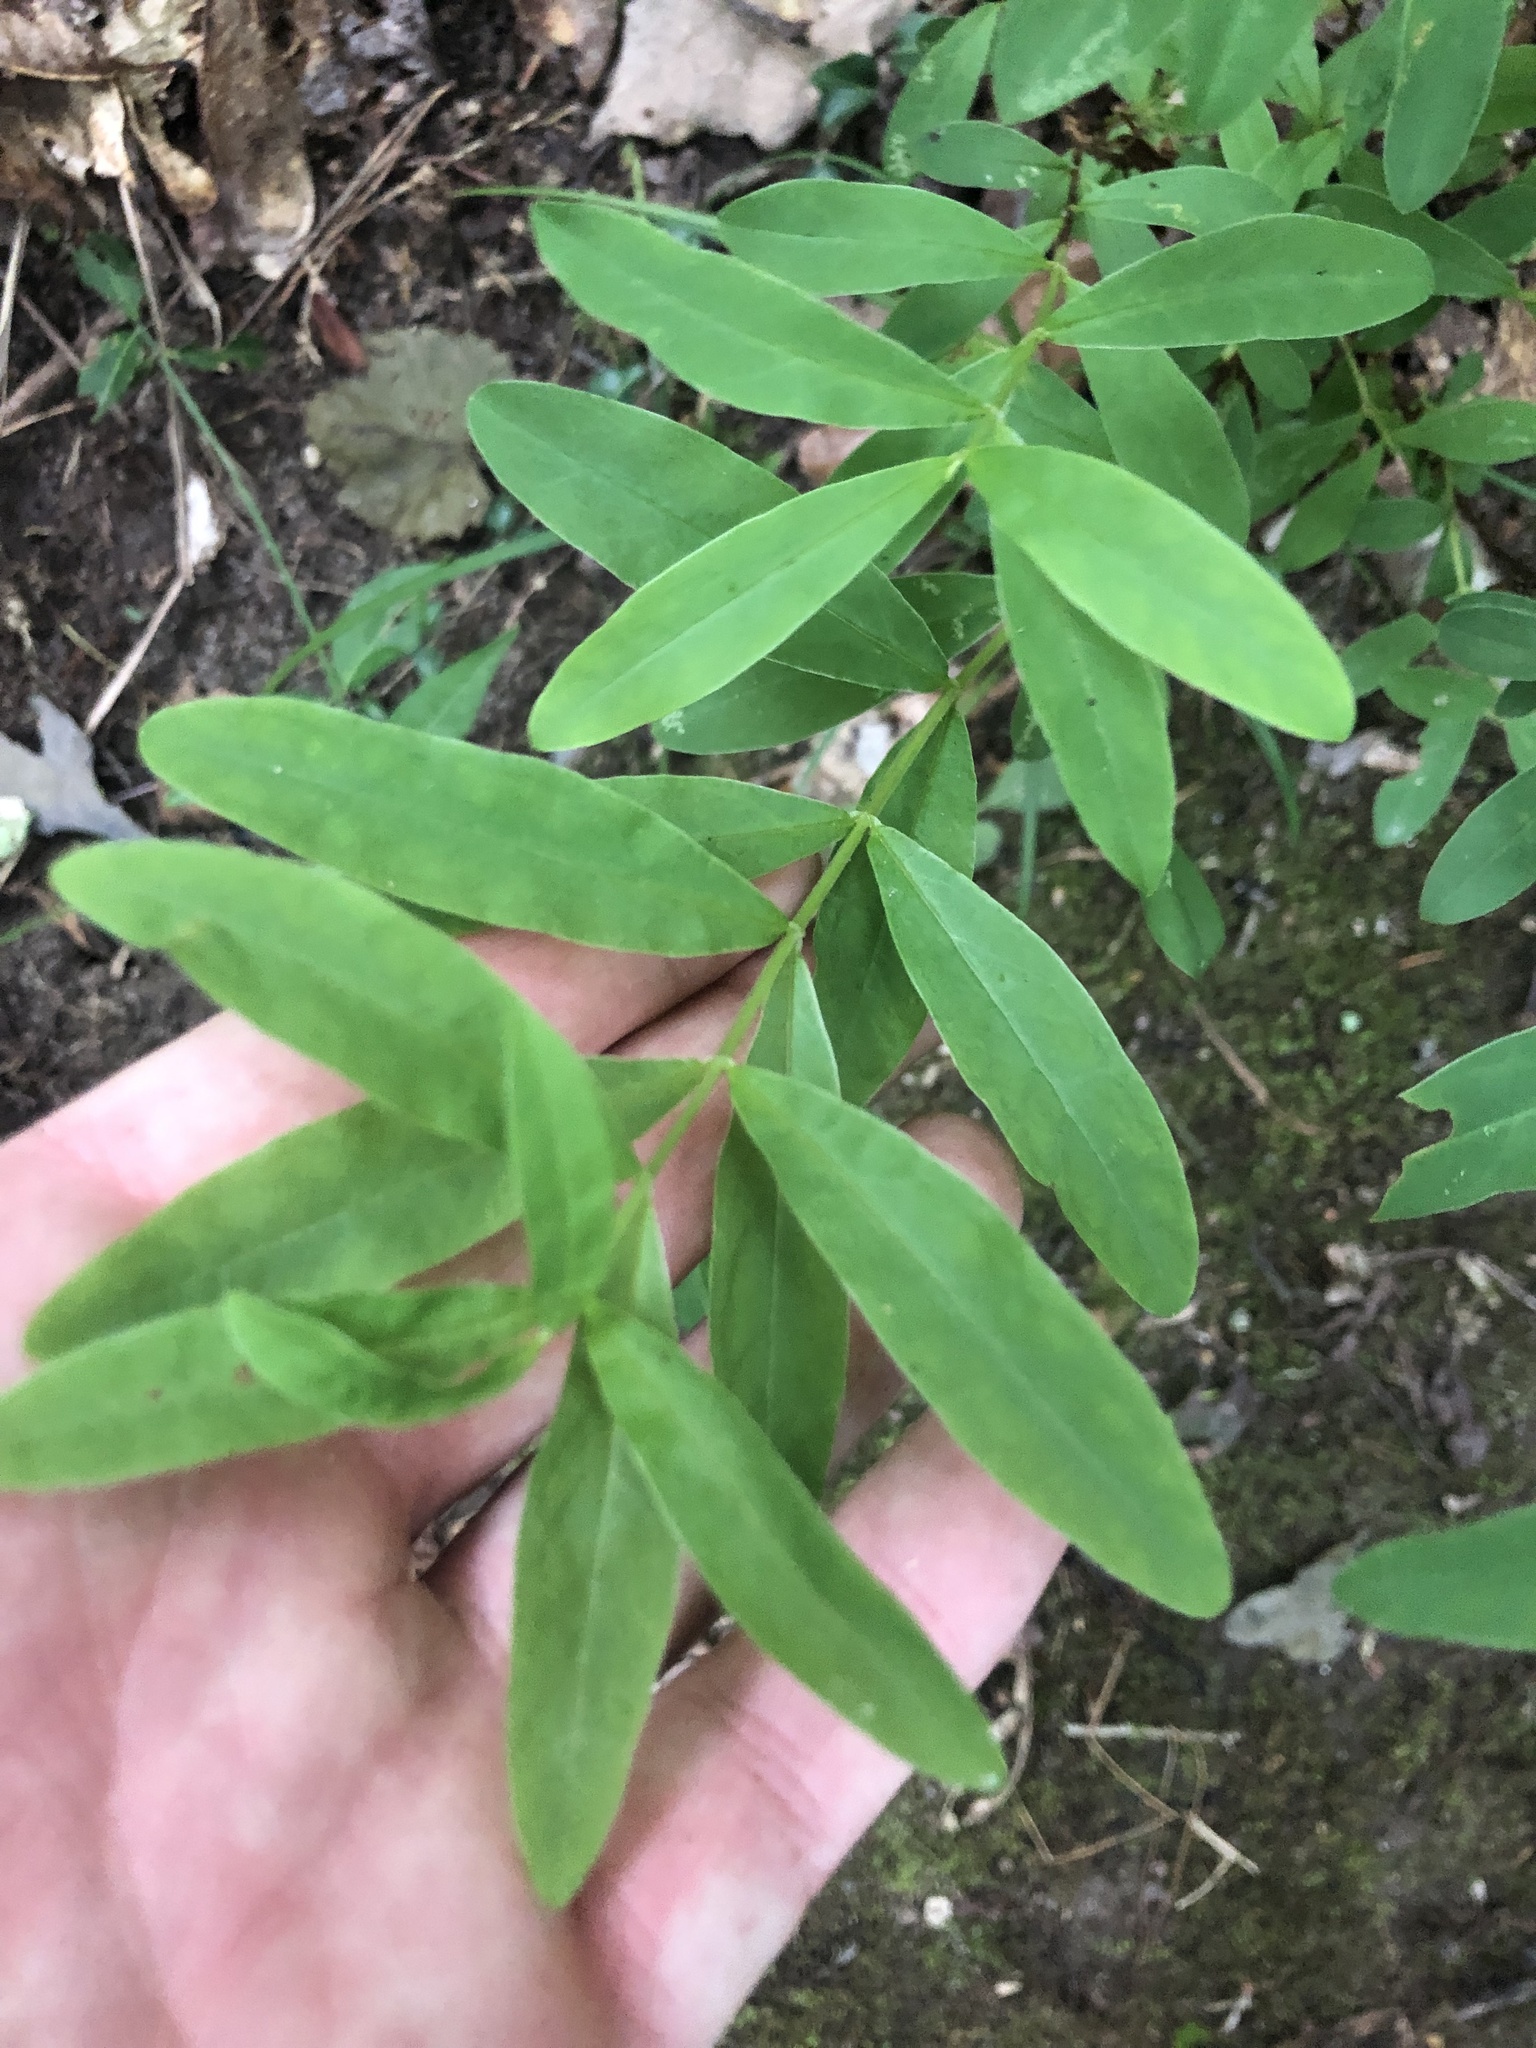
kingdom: Plantae
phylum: Tracheophyta
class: Magnoliopsida
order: Malpighiales
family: Hypericaceae
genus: Hypericum
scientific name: Hypericum nudiflorum
